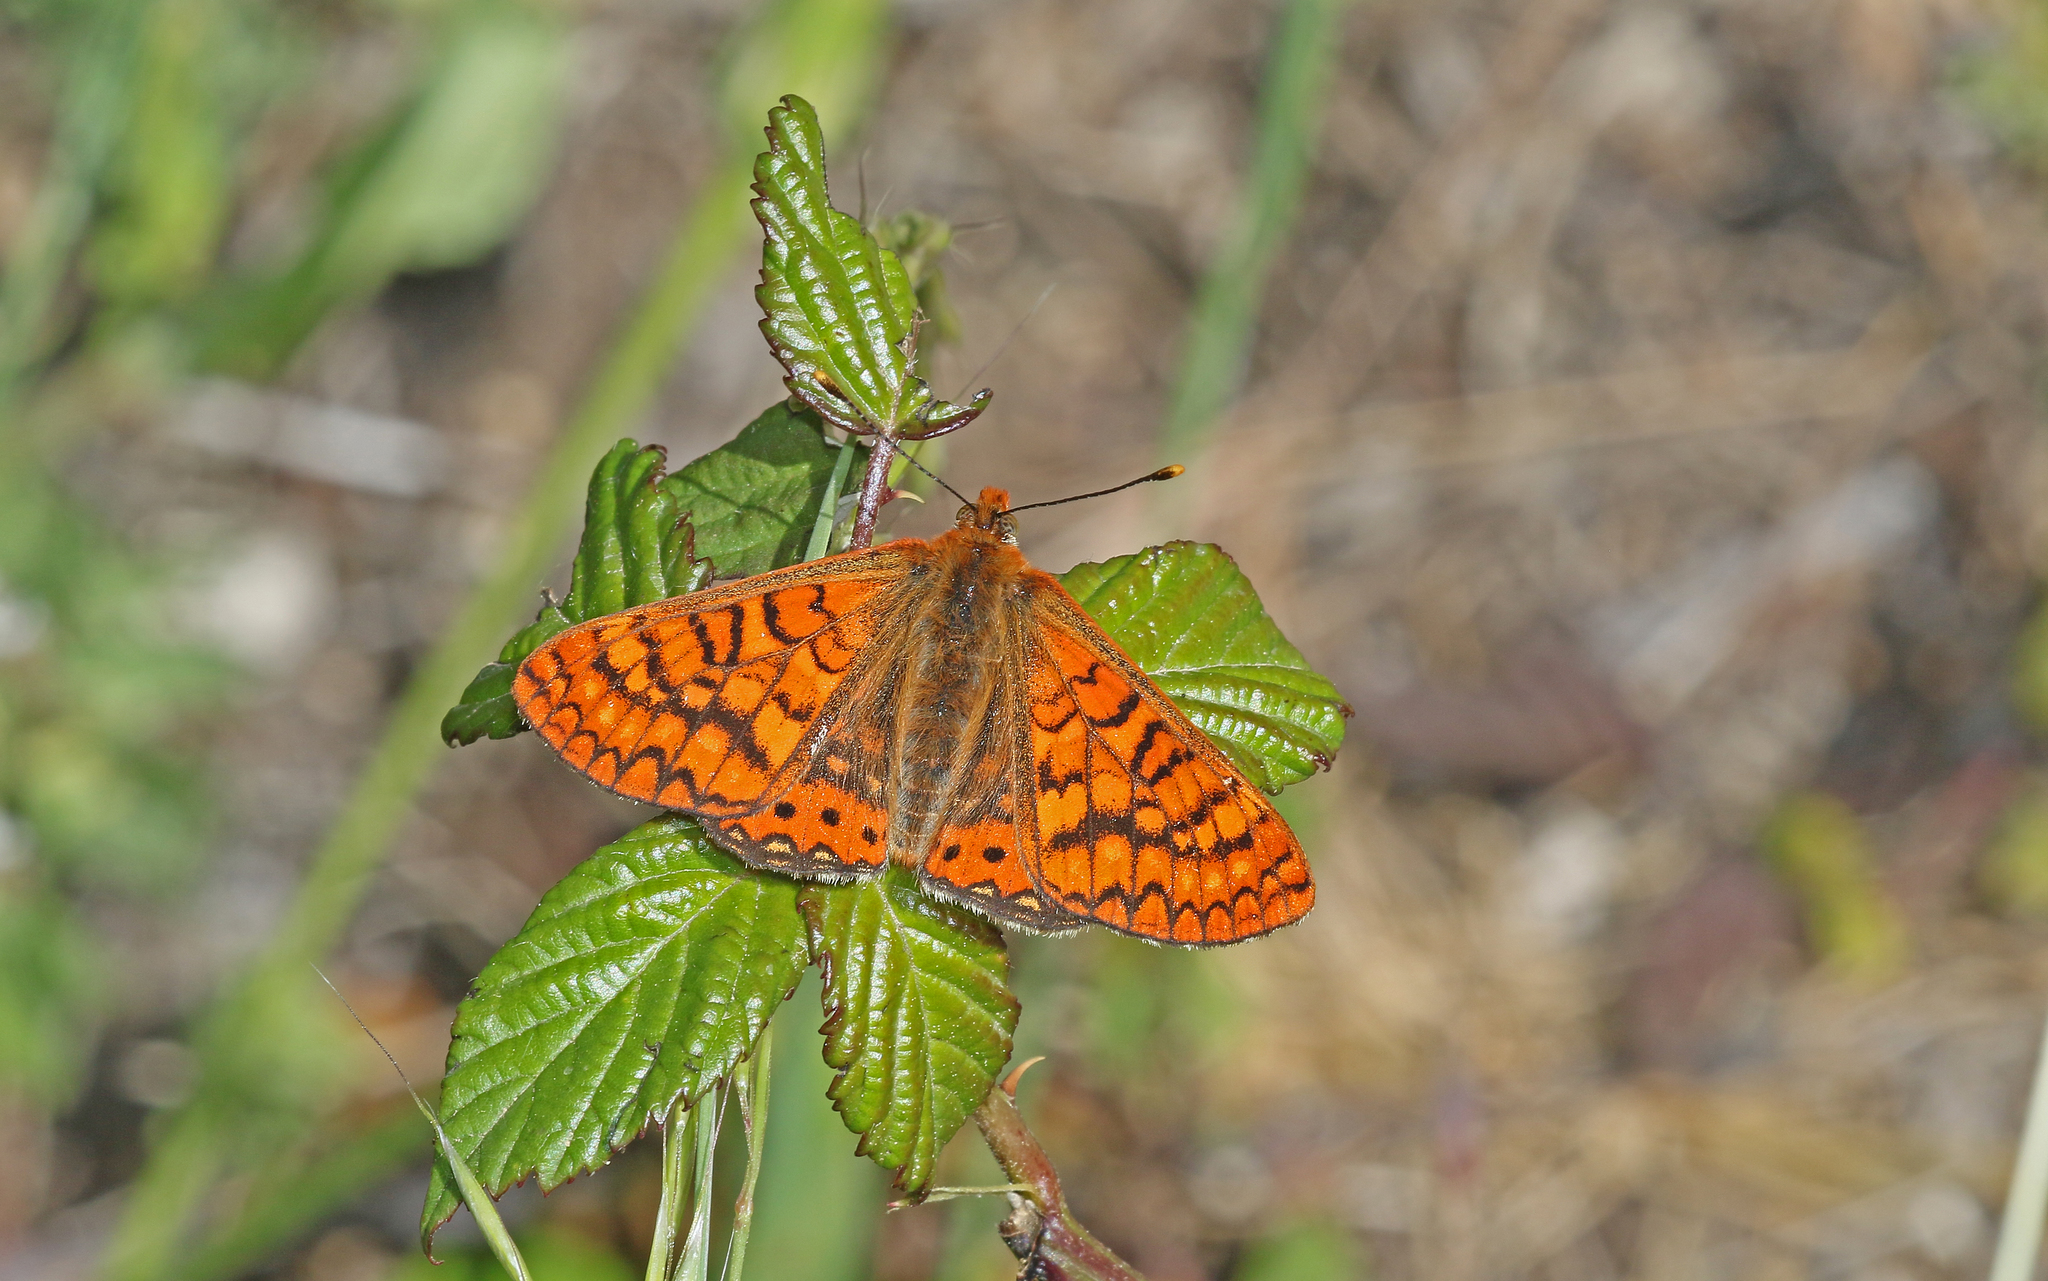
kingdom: Animalia
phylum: Arthropoda
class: Insecta
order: Lepidoptera
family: Nymphalidae
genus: Euphydryas
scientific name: Euphydryas aurinia
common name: Marsh fritillary
